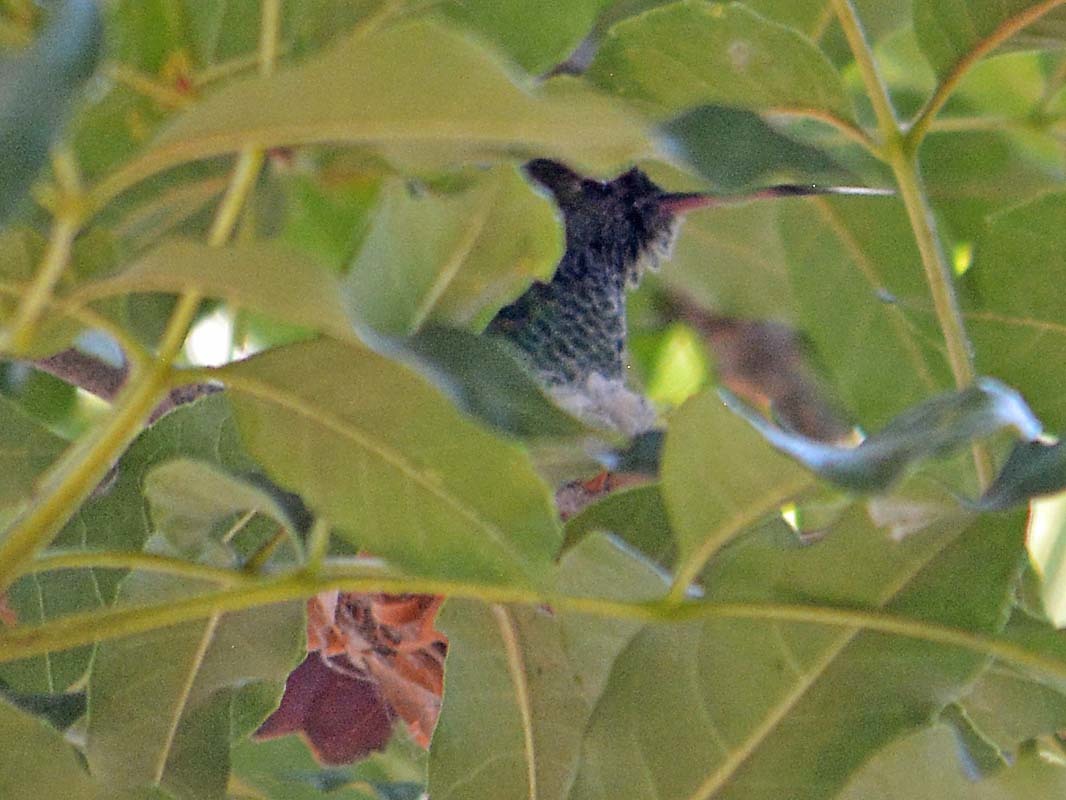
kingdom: Animalia
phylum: Chordata
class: Aves
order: Apodiformes
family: Trochilidae
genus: Cynanthus
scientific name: Cynanthus latirostris
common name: Broad-billed hummingbird
